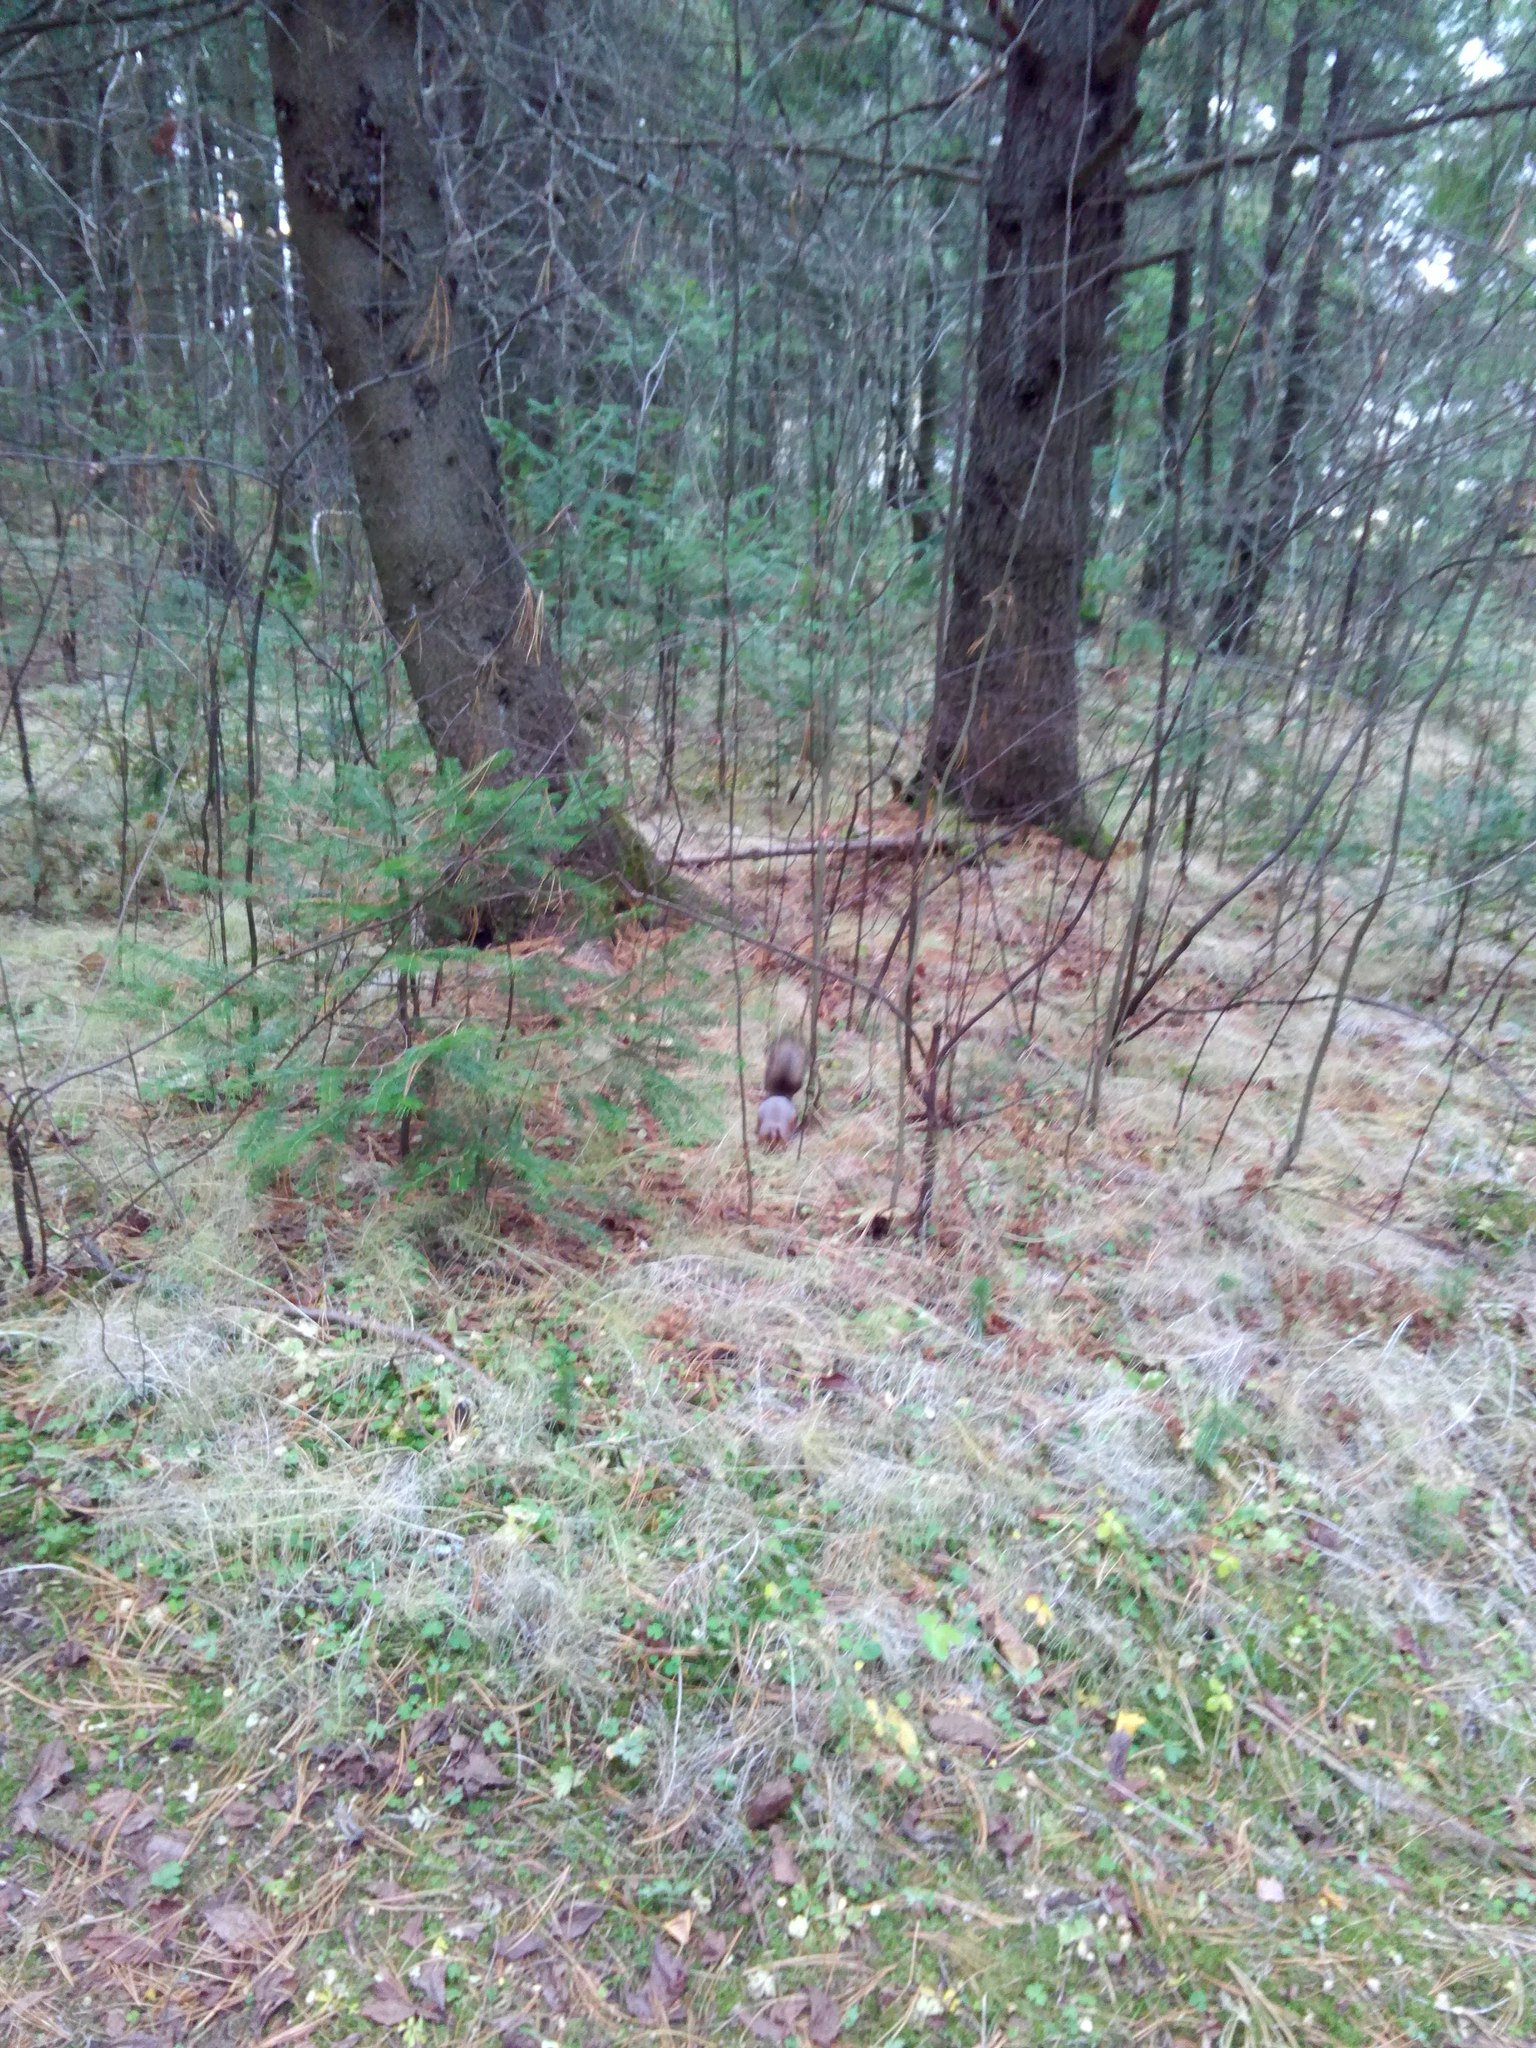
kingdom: Animalia
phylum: Chordata
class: Mammalia
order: Rodentia
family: Sciuridae
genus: Sciurus
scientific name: Sciurus vulgaris
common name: Eurasian red squirrel
